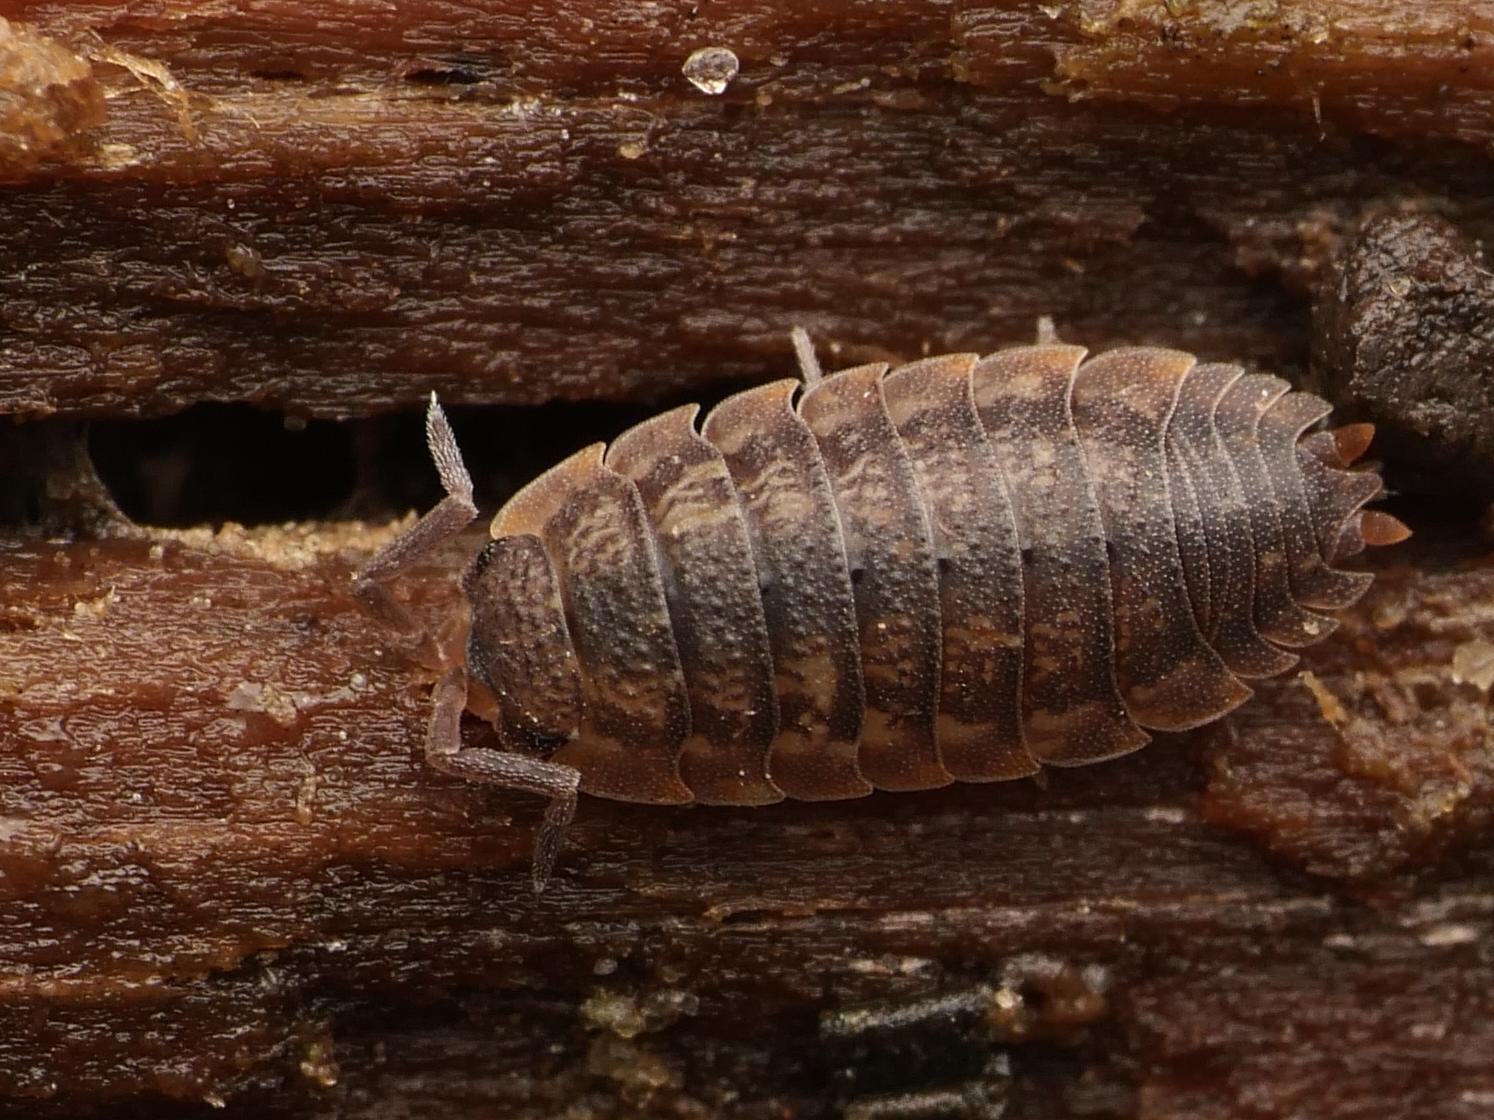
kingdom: Animalia
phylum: Arthropoda
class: Malacostraca
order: Isopoda
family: Porcellionidae
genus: Porcellio
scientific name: Porcellio scaber
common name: Common rough woodlouse
